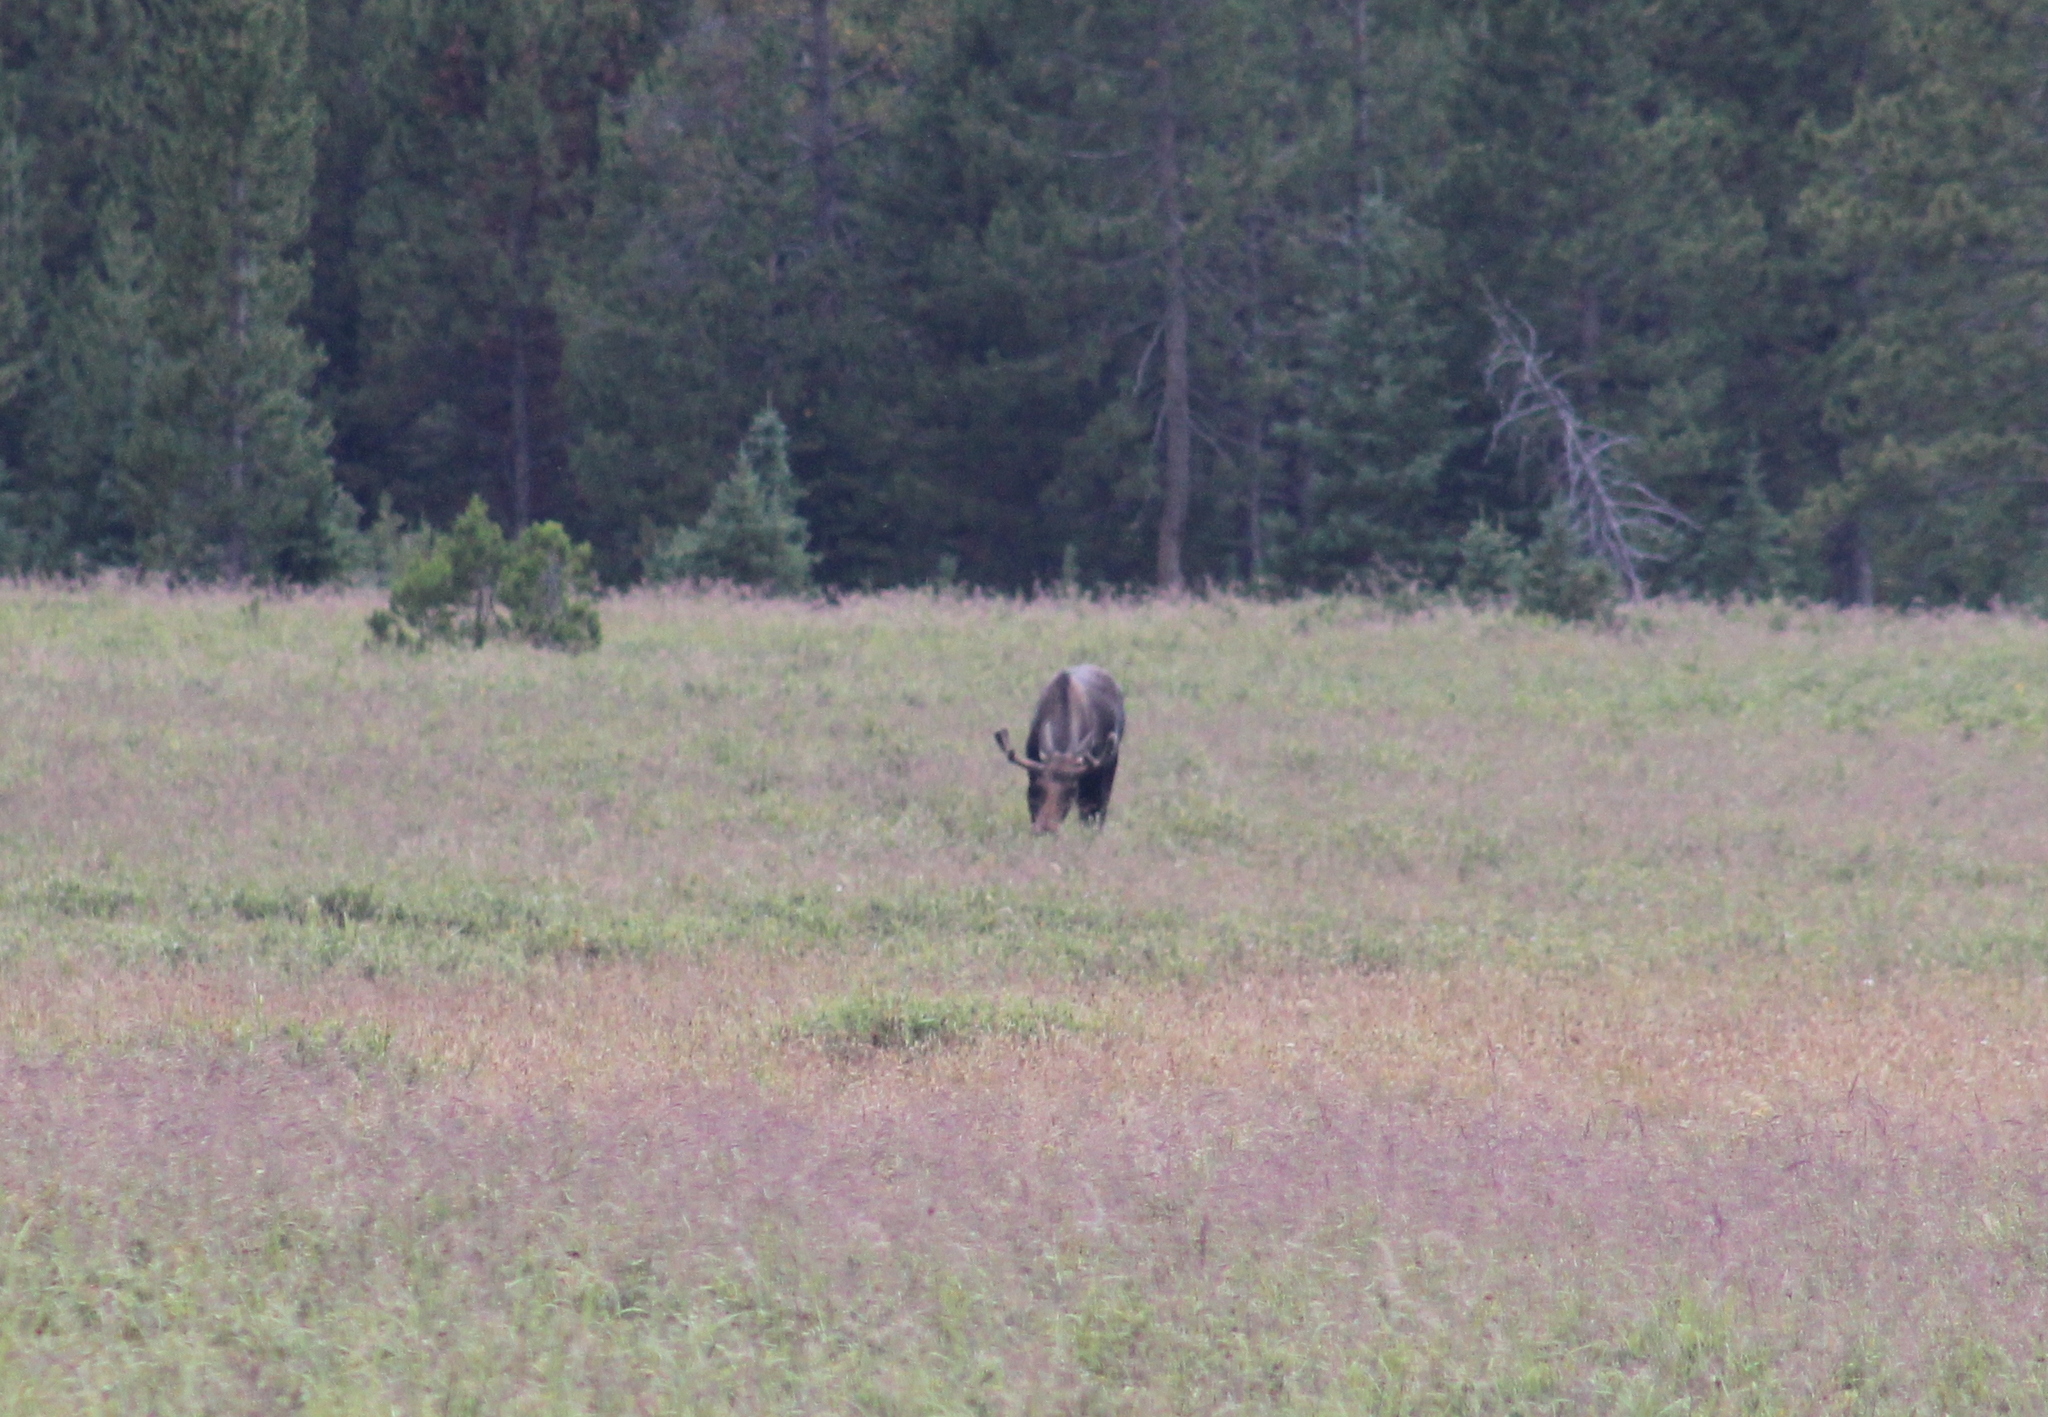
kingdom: Animalia
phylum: Chordata
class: Mammalia
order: Artiodactyla
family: Cervidae
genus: Alces
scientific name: Alces alces
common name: Moose
